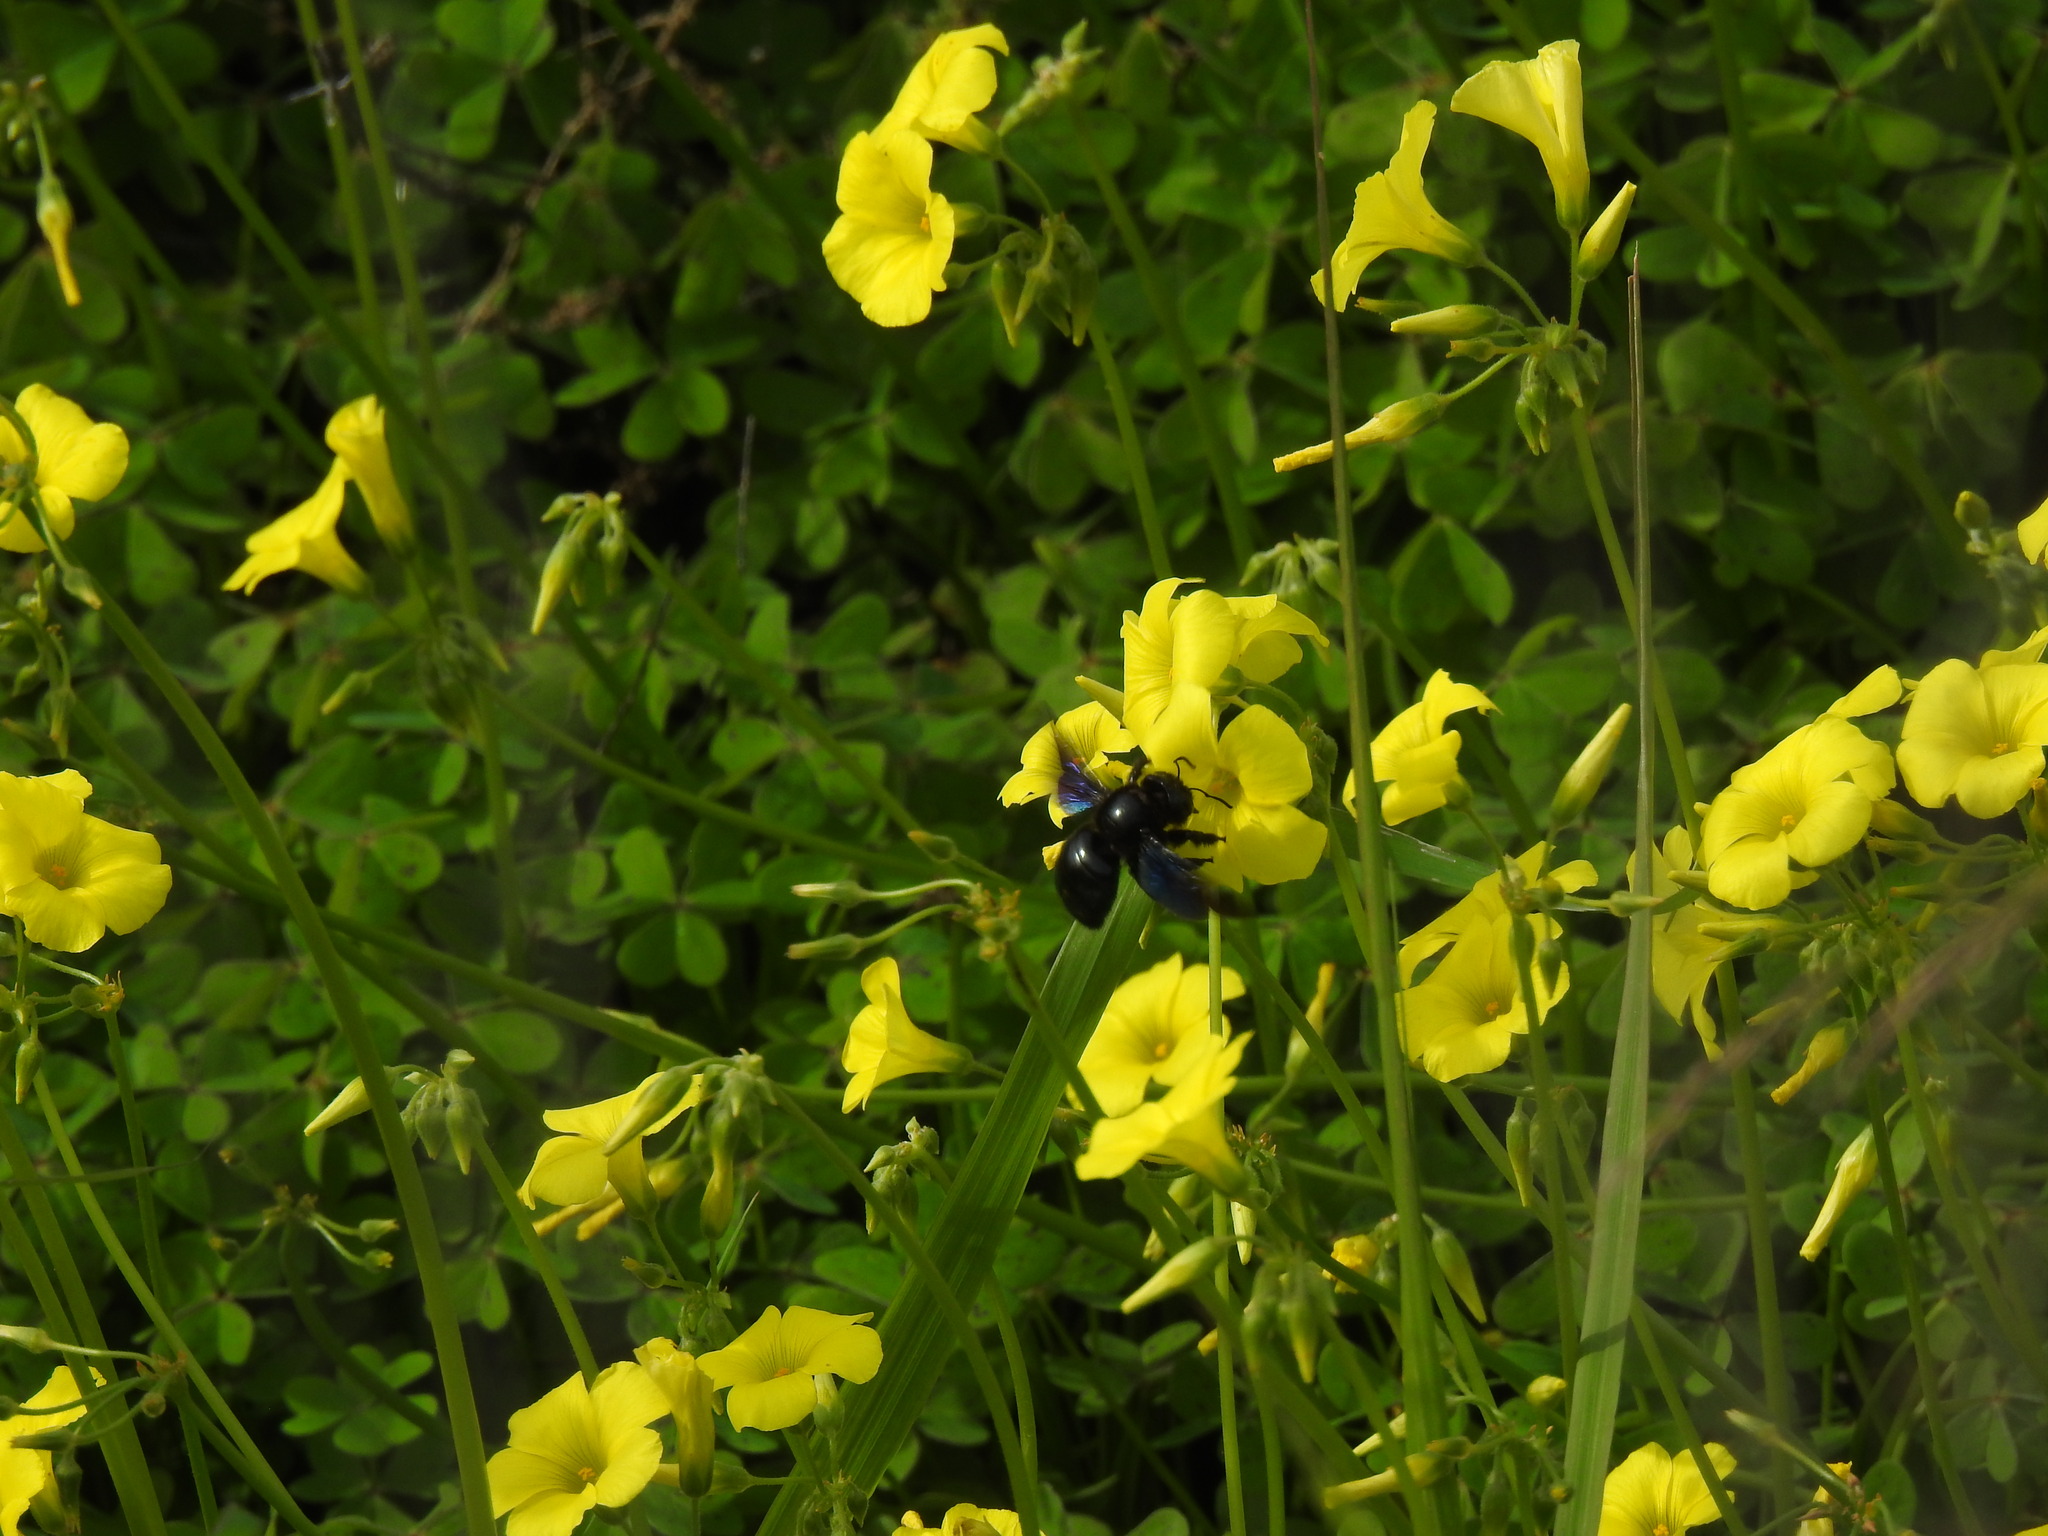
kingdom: Animalia
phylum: Arthropoda
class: Insecta
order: Hymenoptera
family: Apidae
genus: Xylocopa
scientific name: Xylocopa
